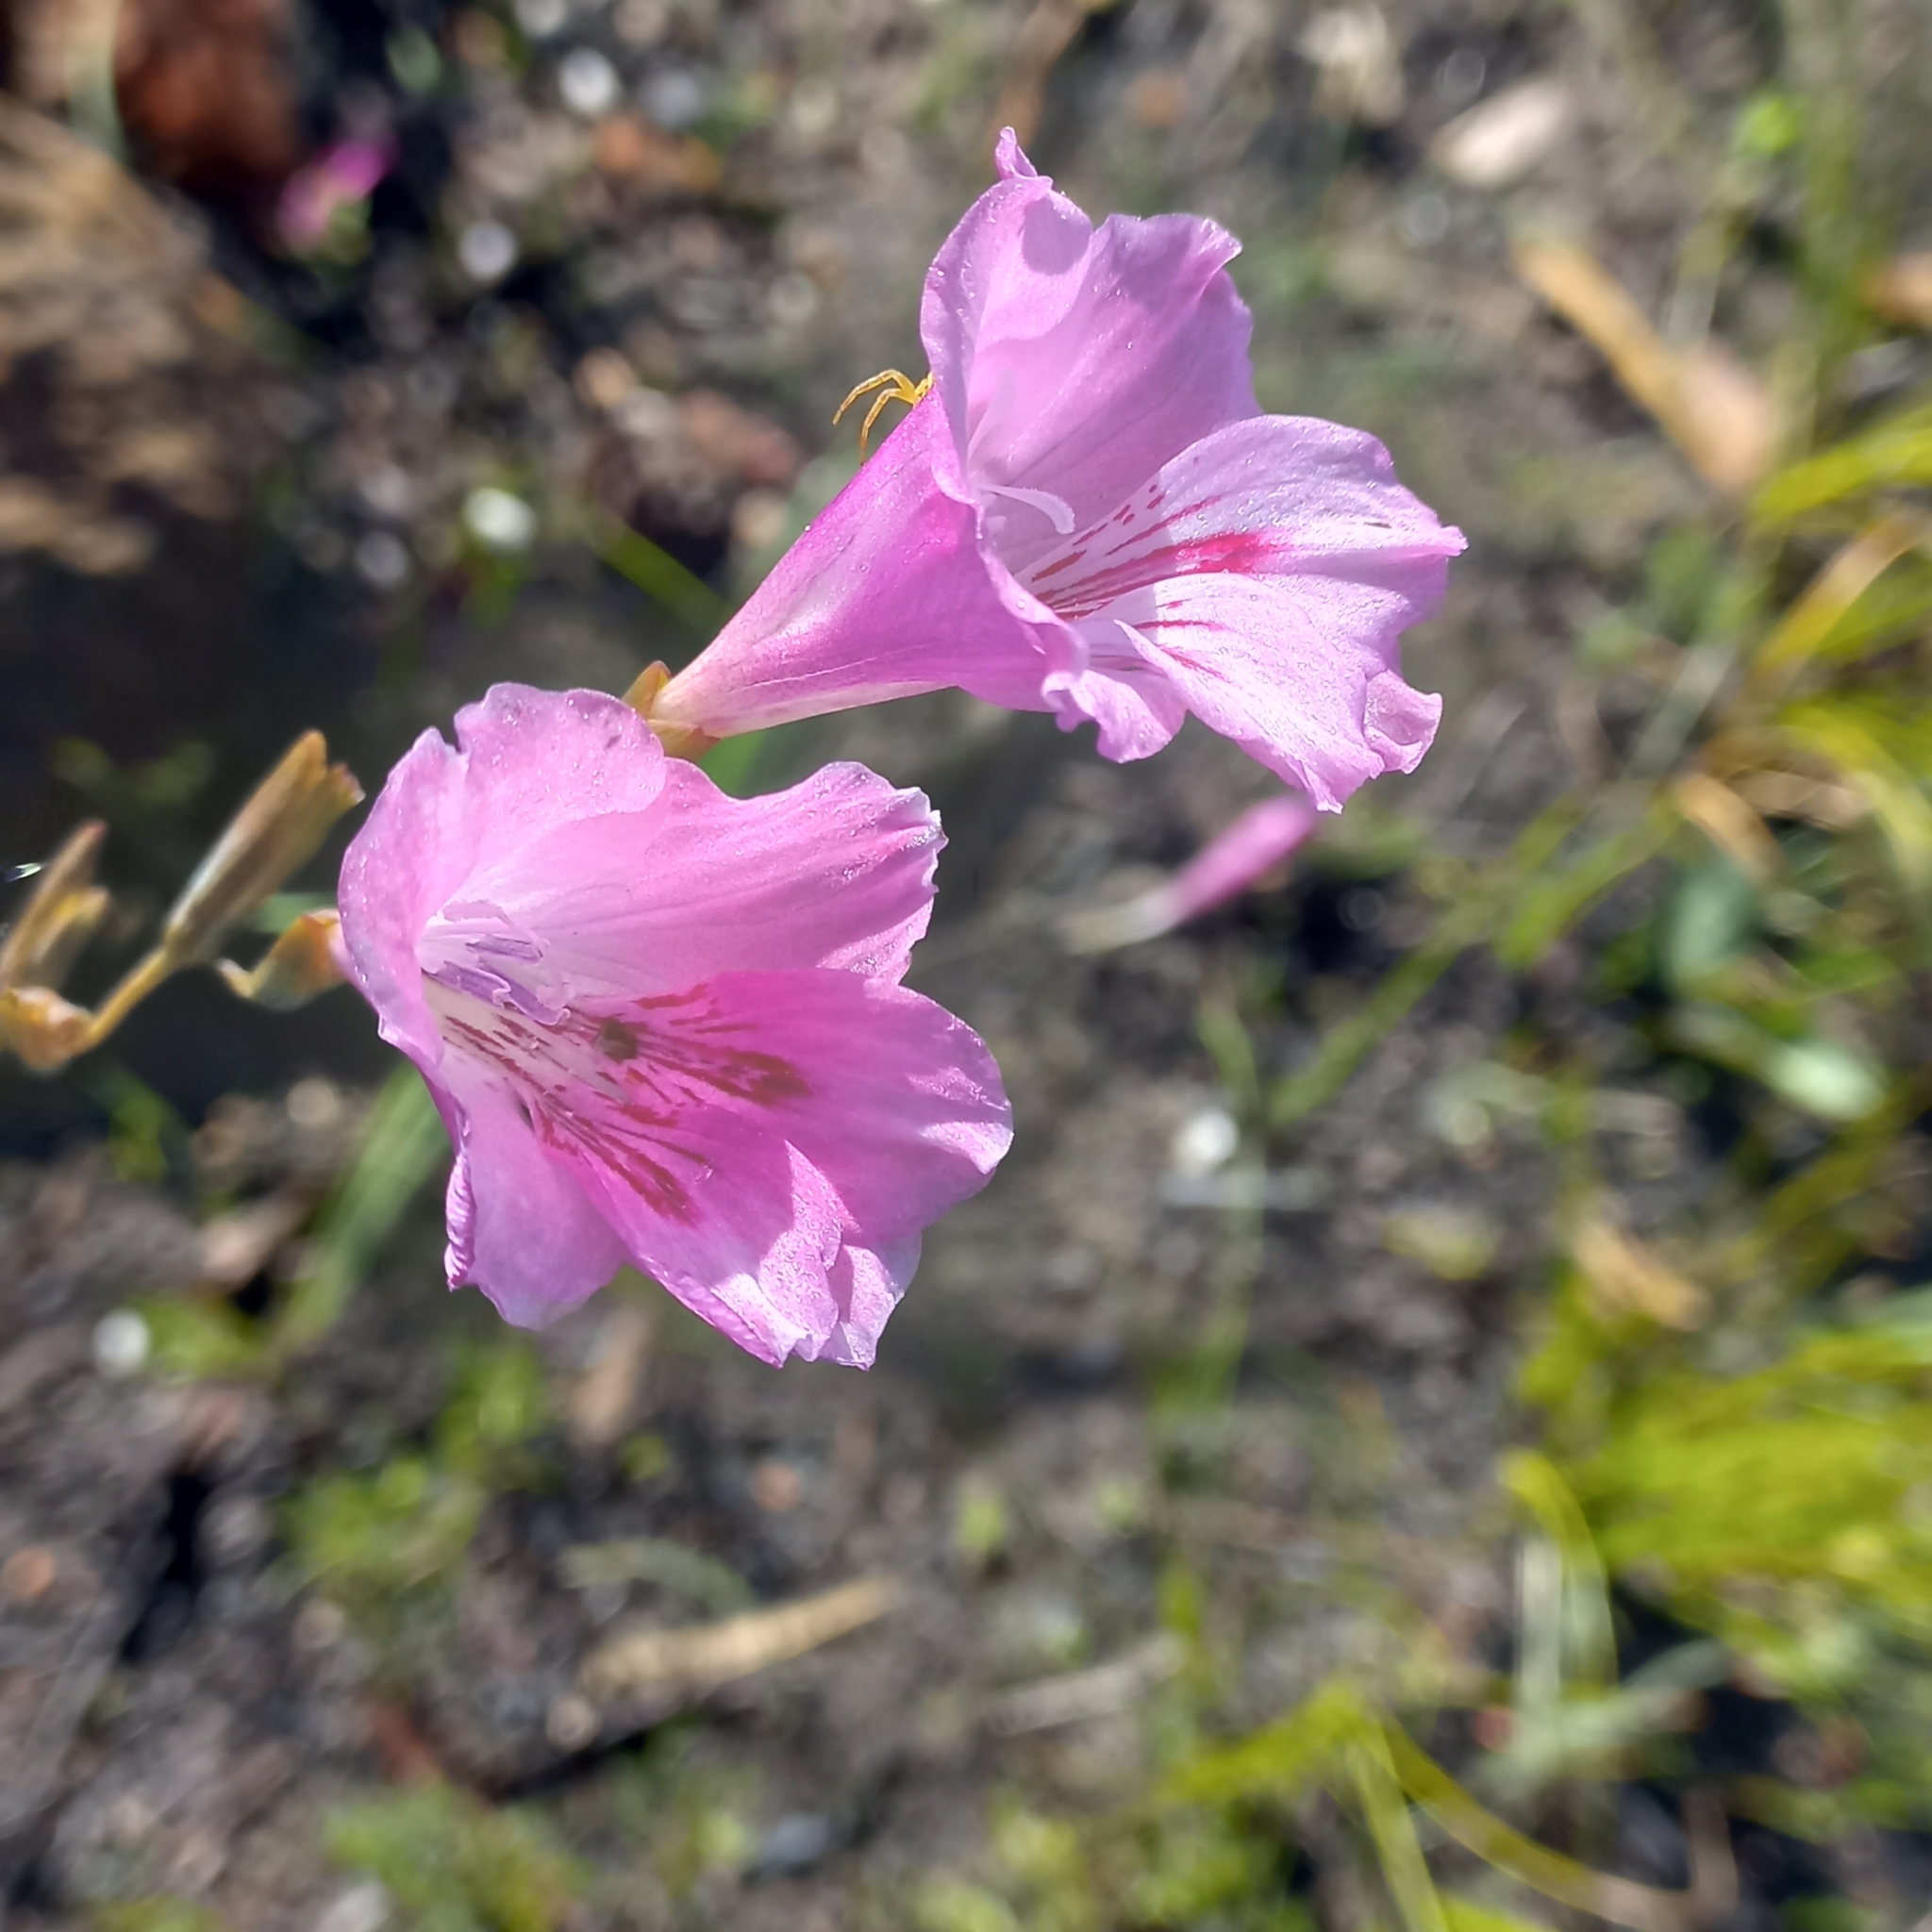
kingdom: Plantae
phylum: Tracheophyta
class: Liliopsida
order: Asparagales
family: Iridaceae
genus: Gladiolus
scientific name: Gladiolus hirsutus
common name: Small pink afrikaner
